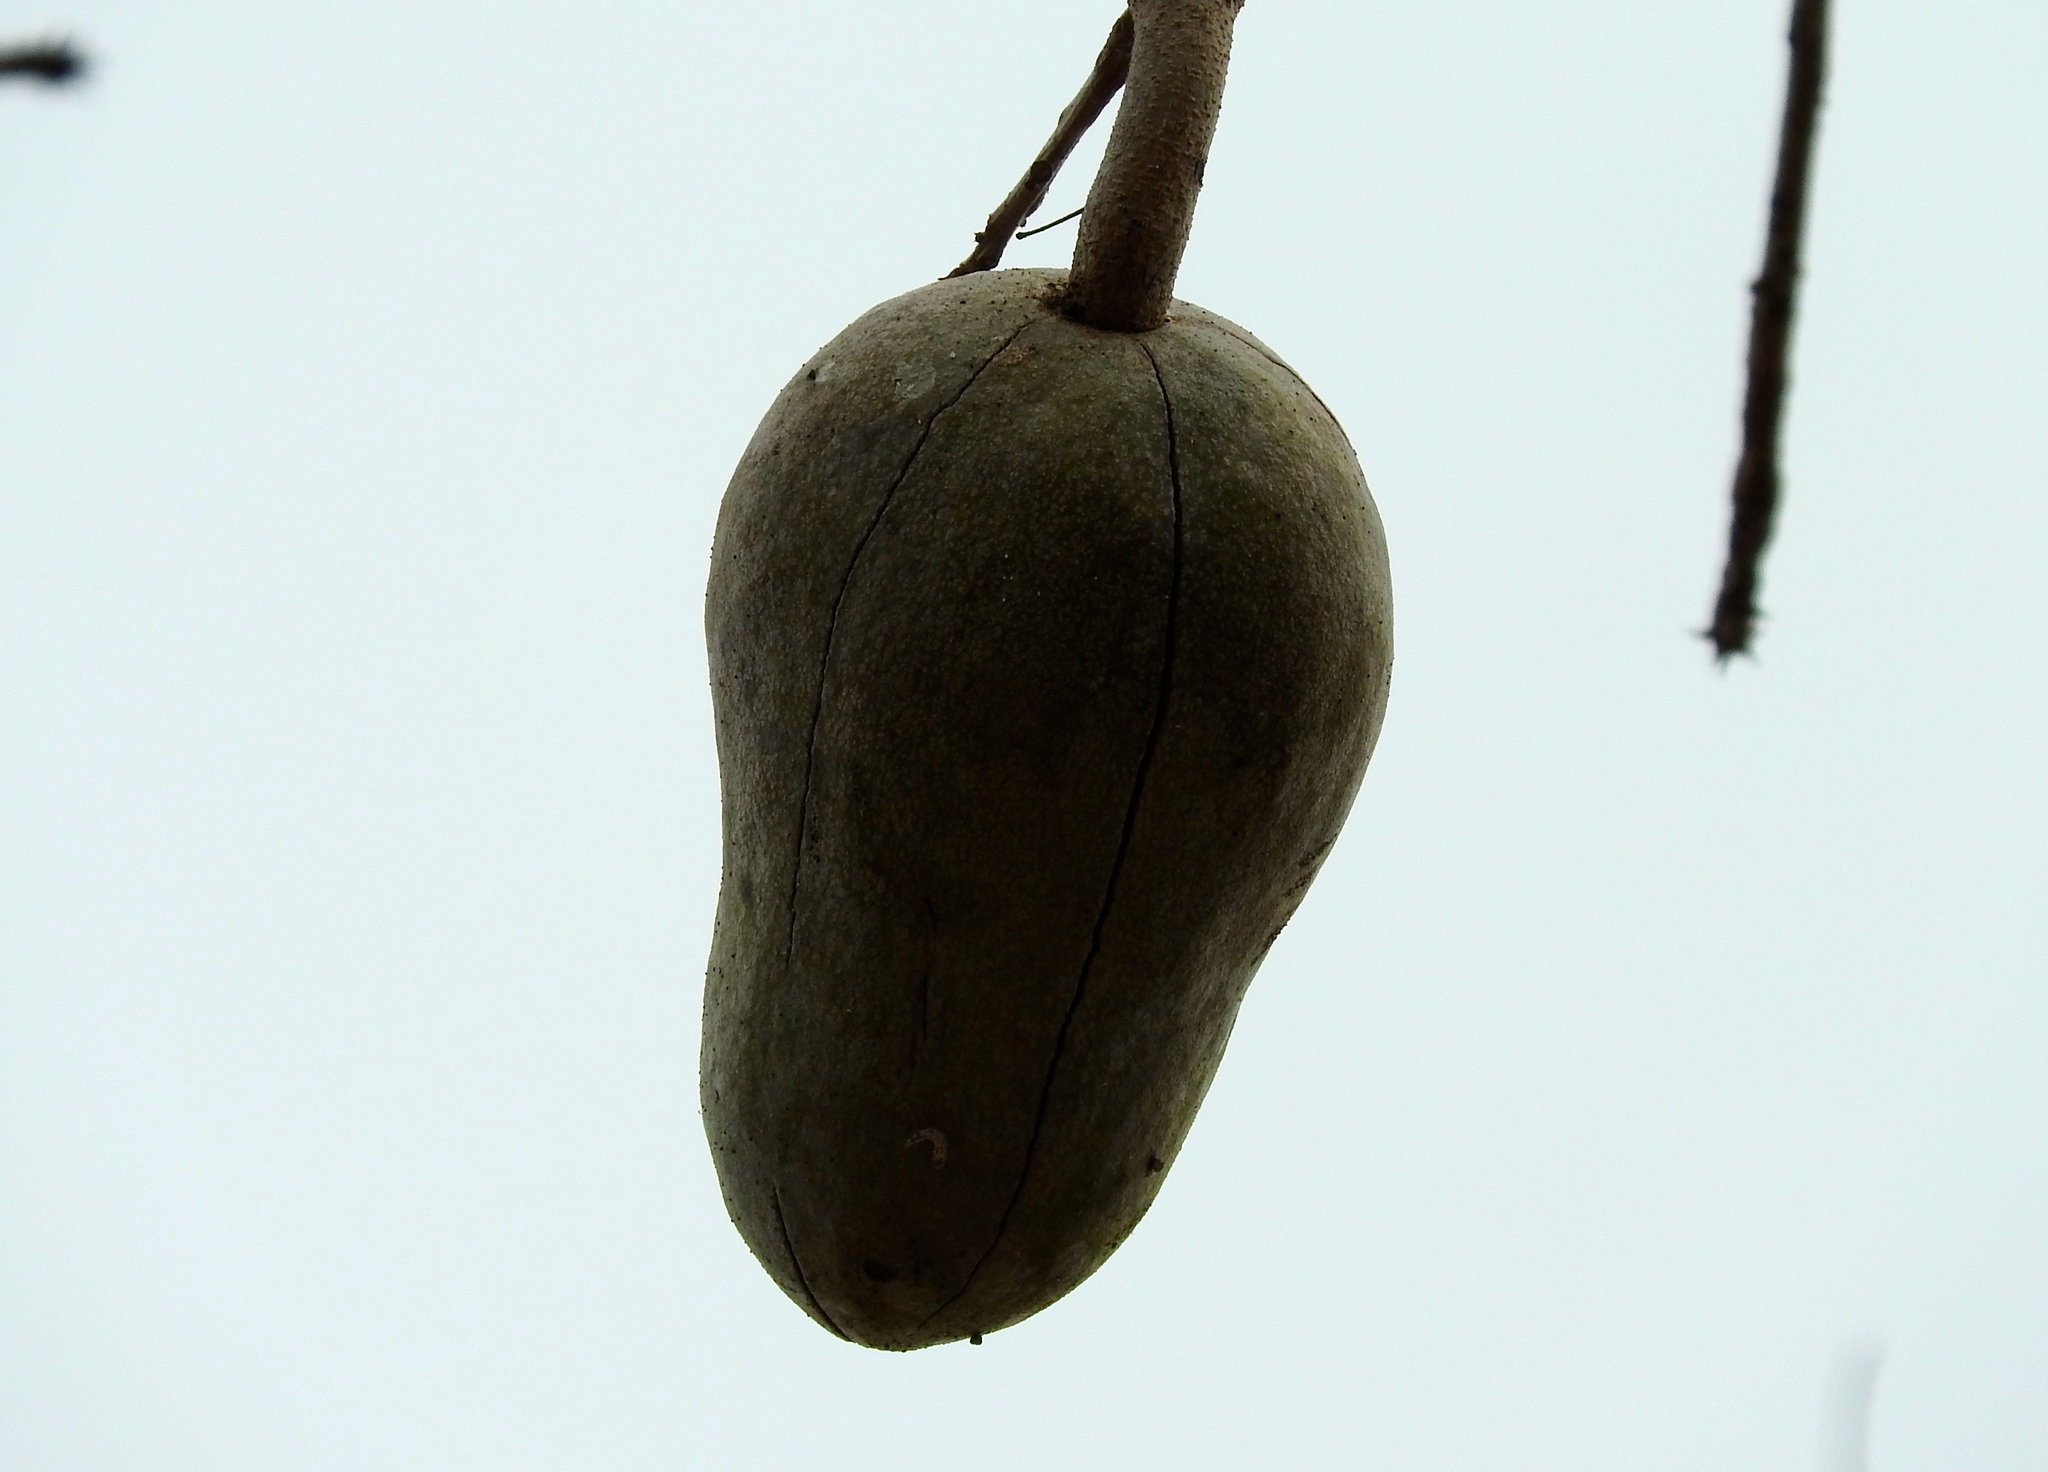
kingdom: Plantae
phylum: Tracheophyta
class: Magnoliopsida
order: Sapindales
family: Meliaceae
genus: Swietenia
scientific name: Swietenia humilis
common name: Pacific coast mahogany
